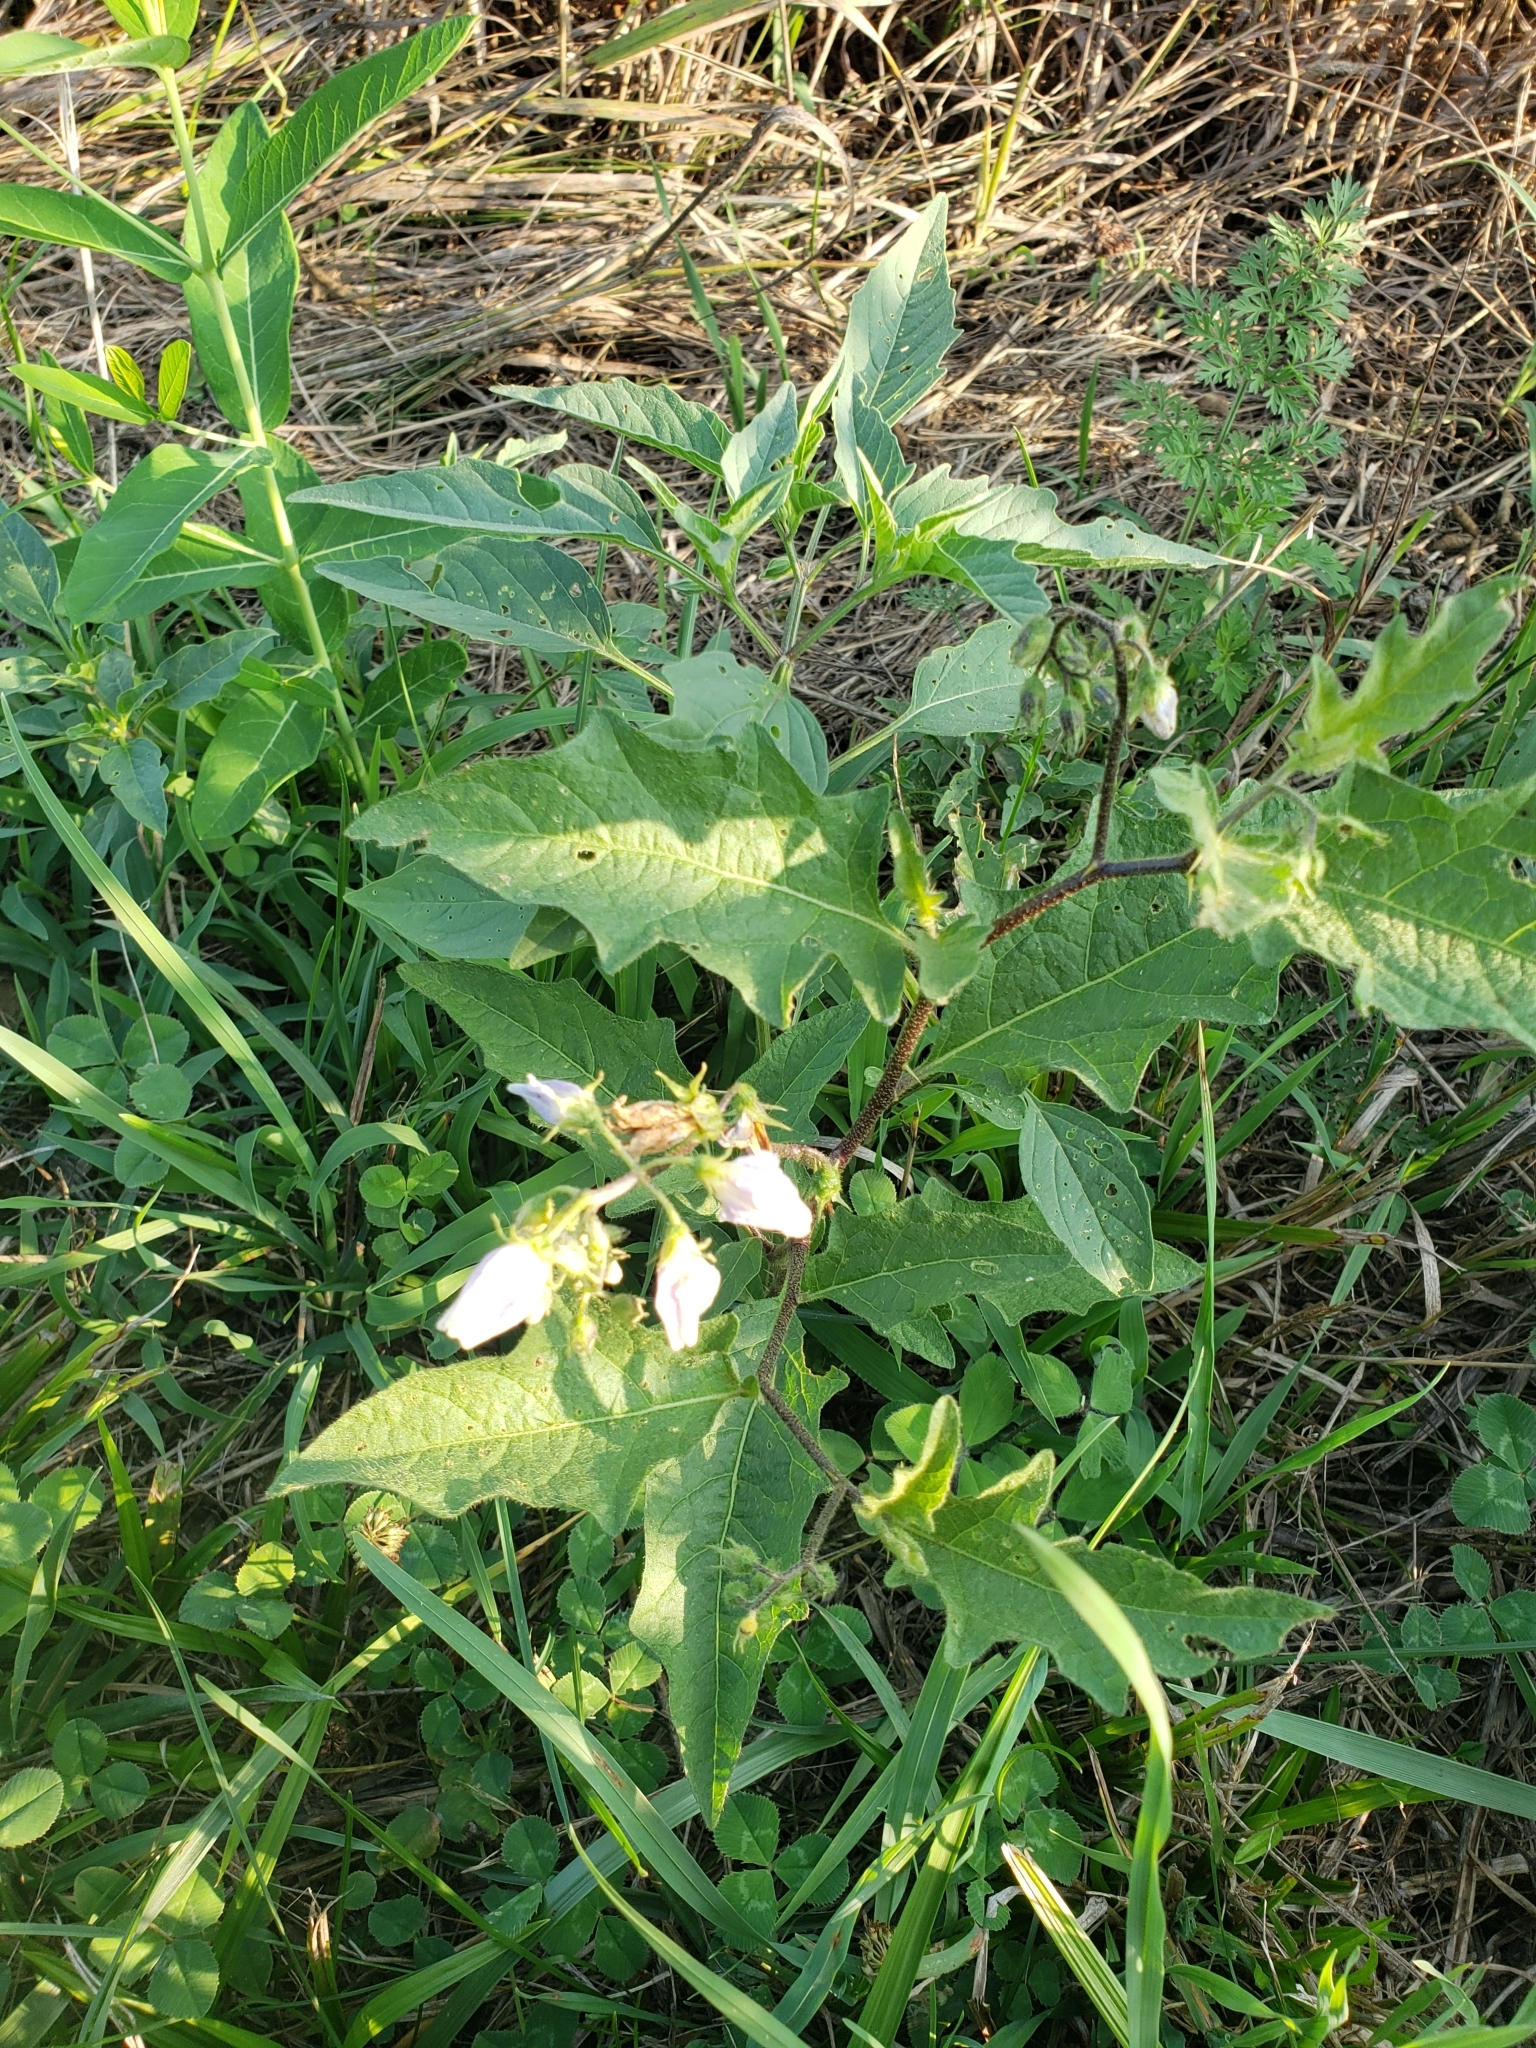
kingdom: Plantae
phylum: Tracheophyta
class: Magnoliopsida
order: Solanales
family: Solanaceae
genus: Solanum
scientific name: Solanum carolinense
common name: Horse-nettle
